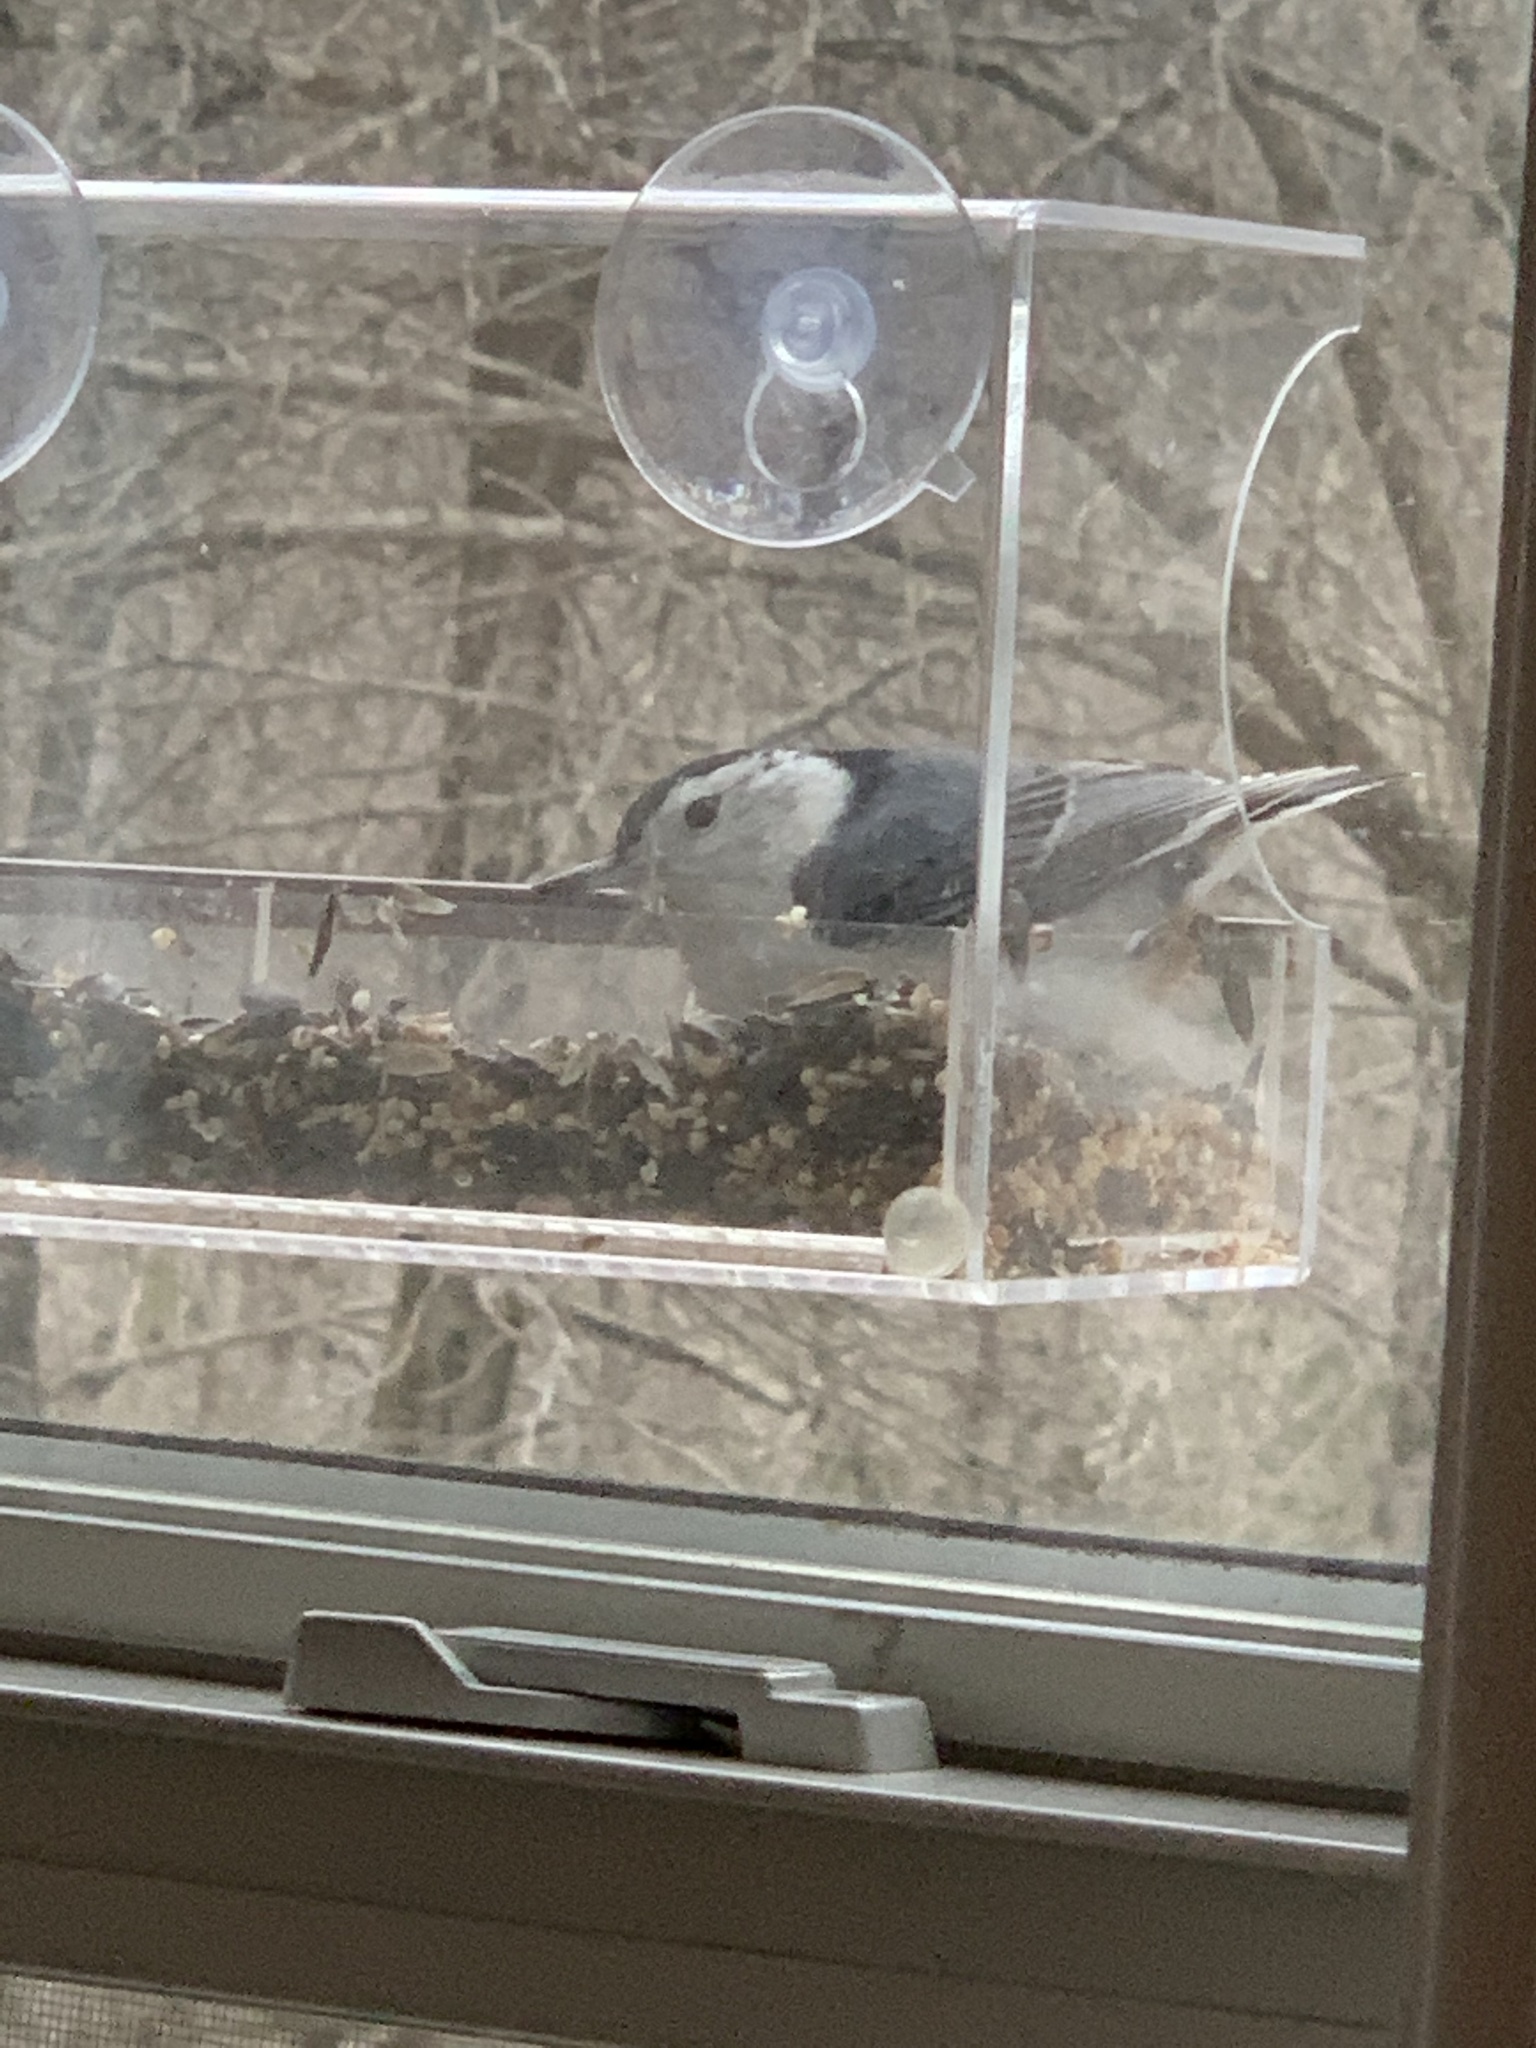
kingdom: Animalia
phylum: Chordata
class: Aves
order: Passeriformes
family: Sittidae
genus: Sitta
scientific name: Sitta carolinensis
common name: White-breasted nuthatch
